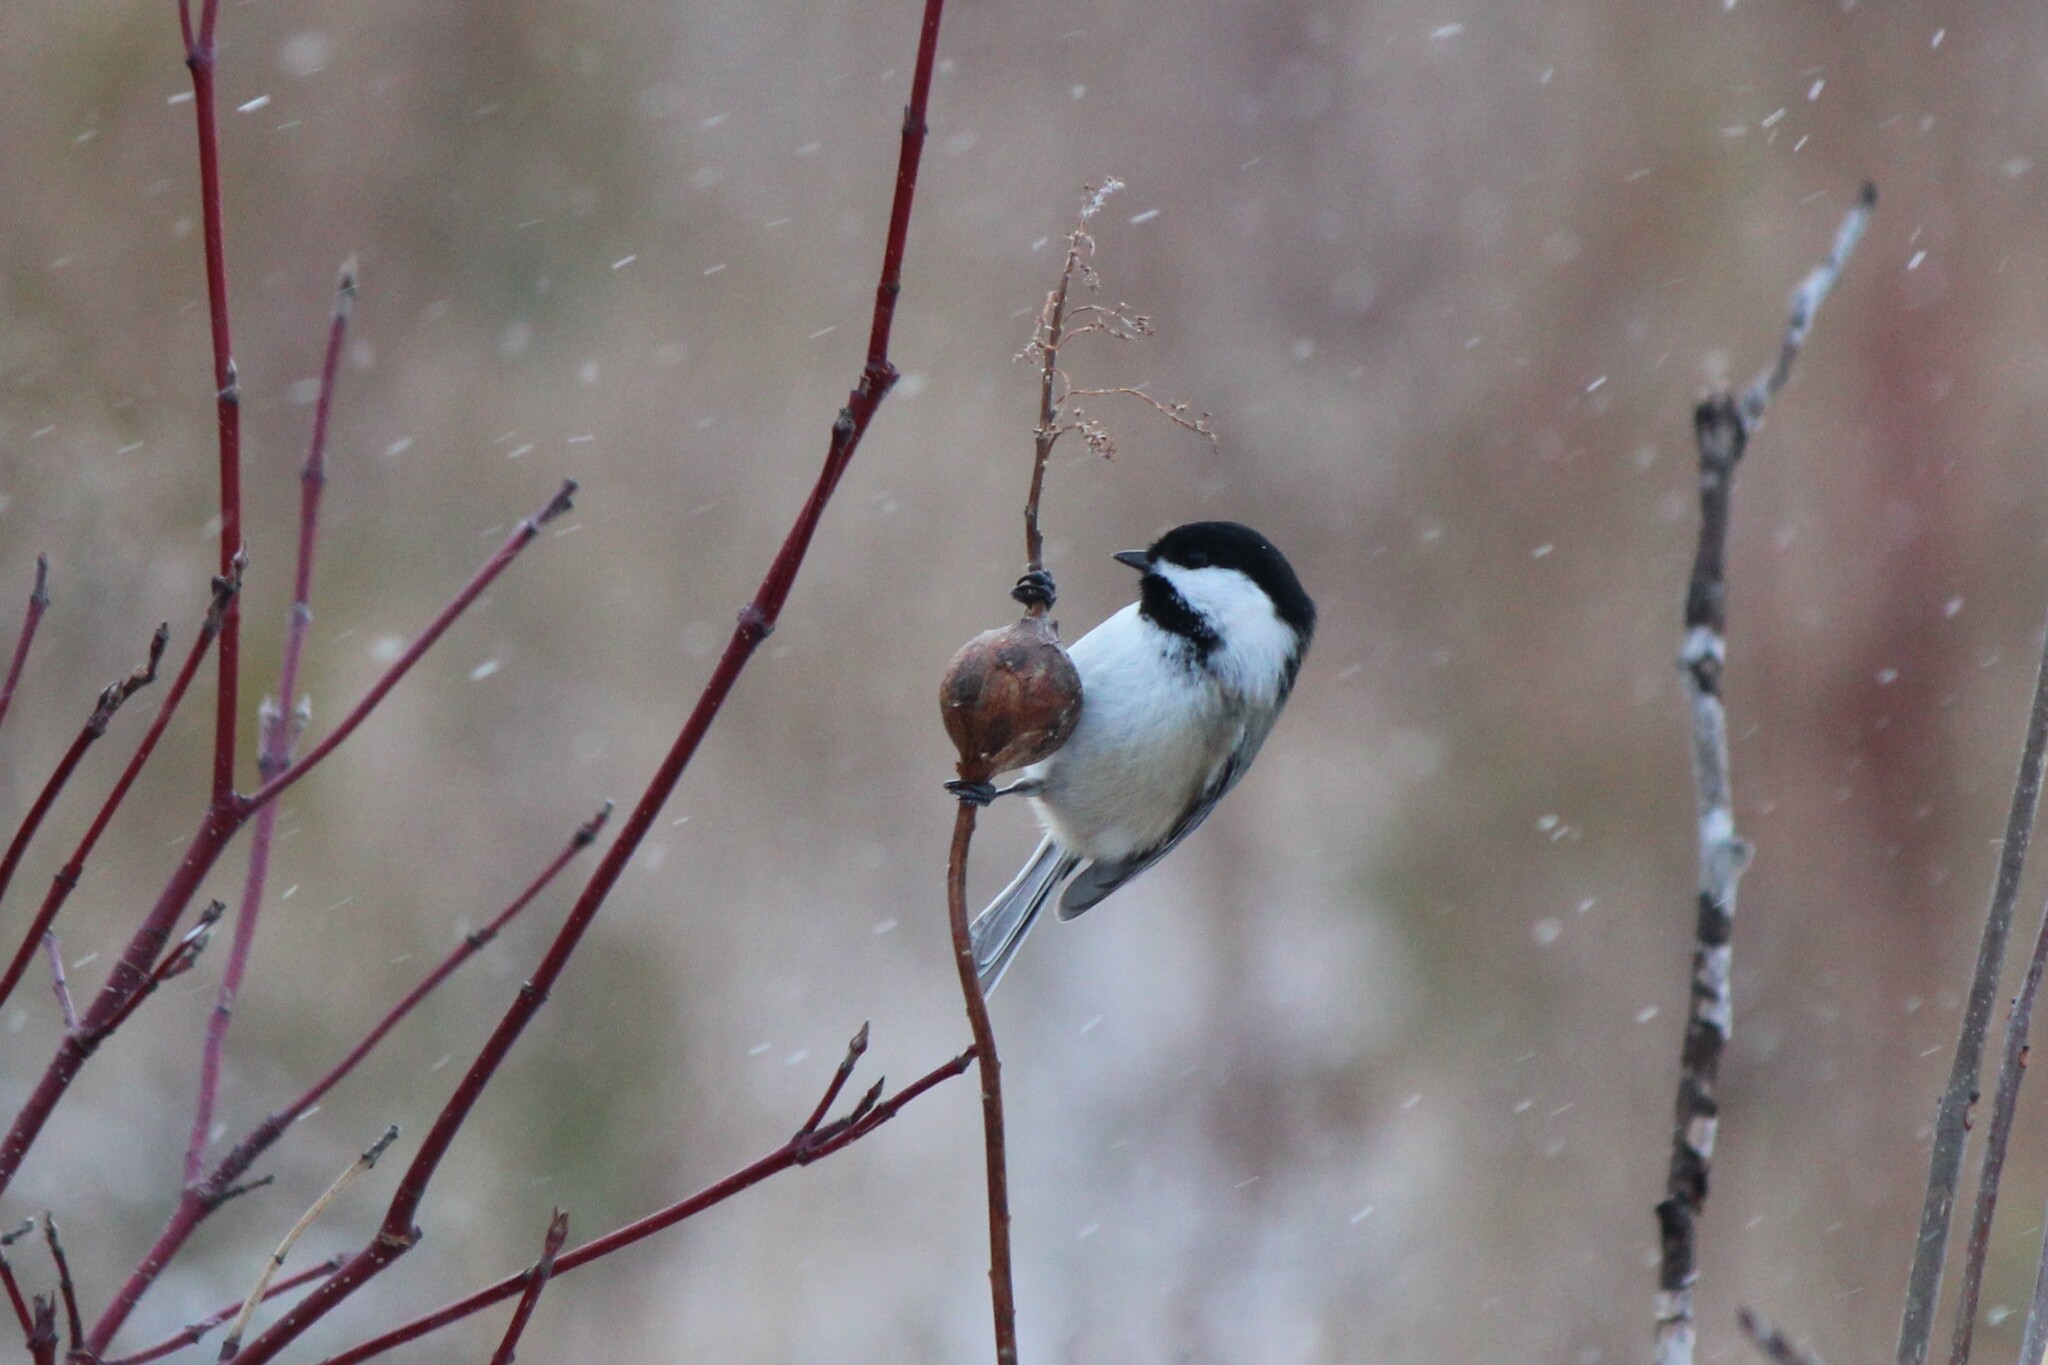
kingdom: Animalia
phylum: Chordata
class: Aves
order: Passeriformes
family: Paridae
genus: Poecile
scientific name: Poecile atricapillus
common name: Black-capped chickadee
